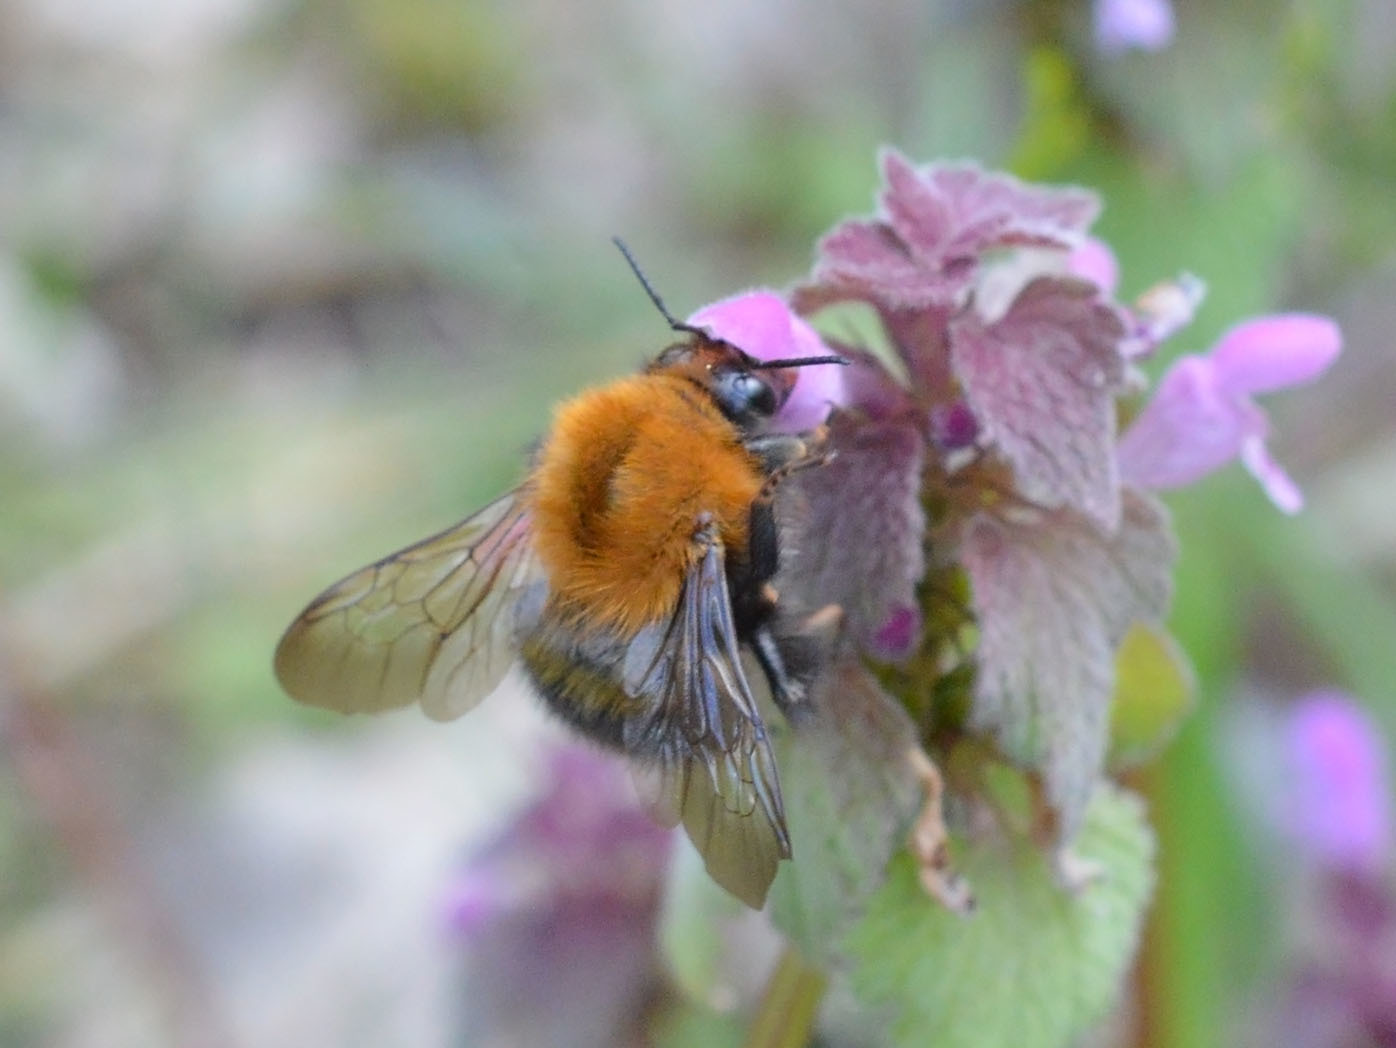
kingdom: Animalia
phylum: Arthropoda
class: Insecta
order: Hymenoptera
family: Apidae
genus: Bombus
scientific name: Bombus pascuorum
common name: Common carder bee
